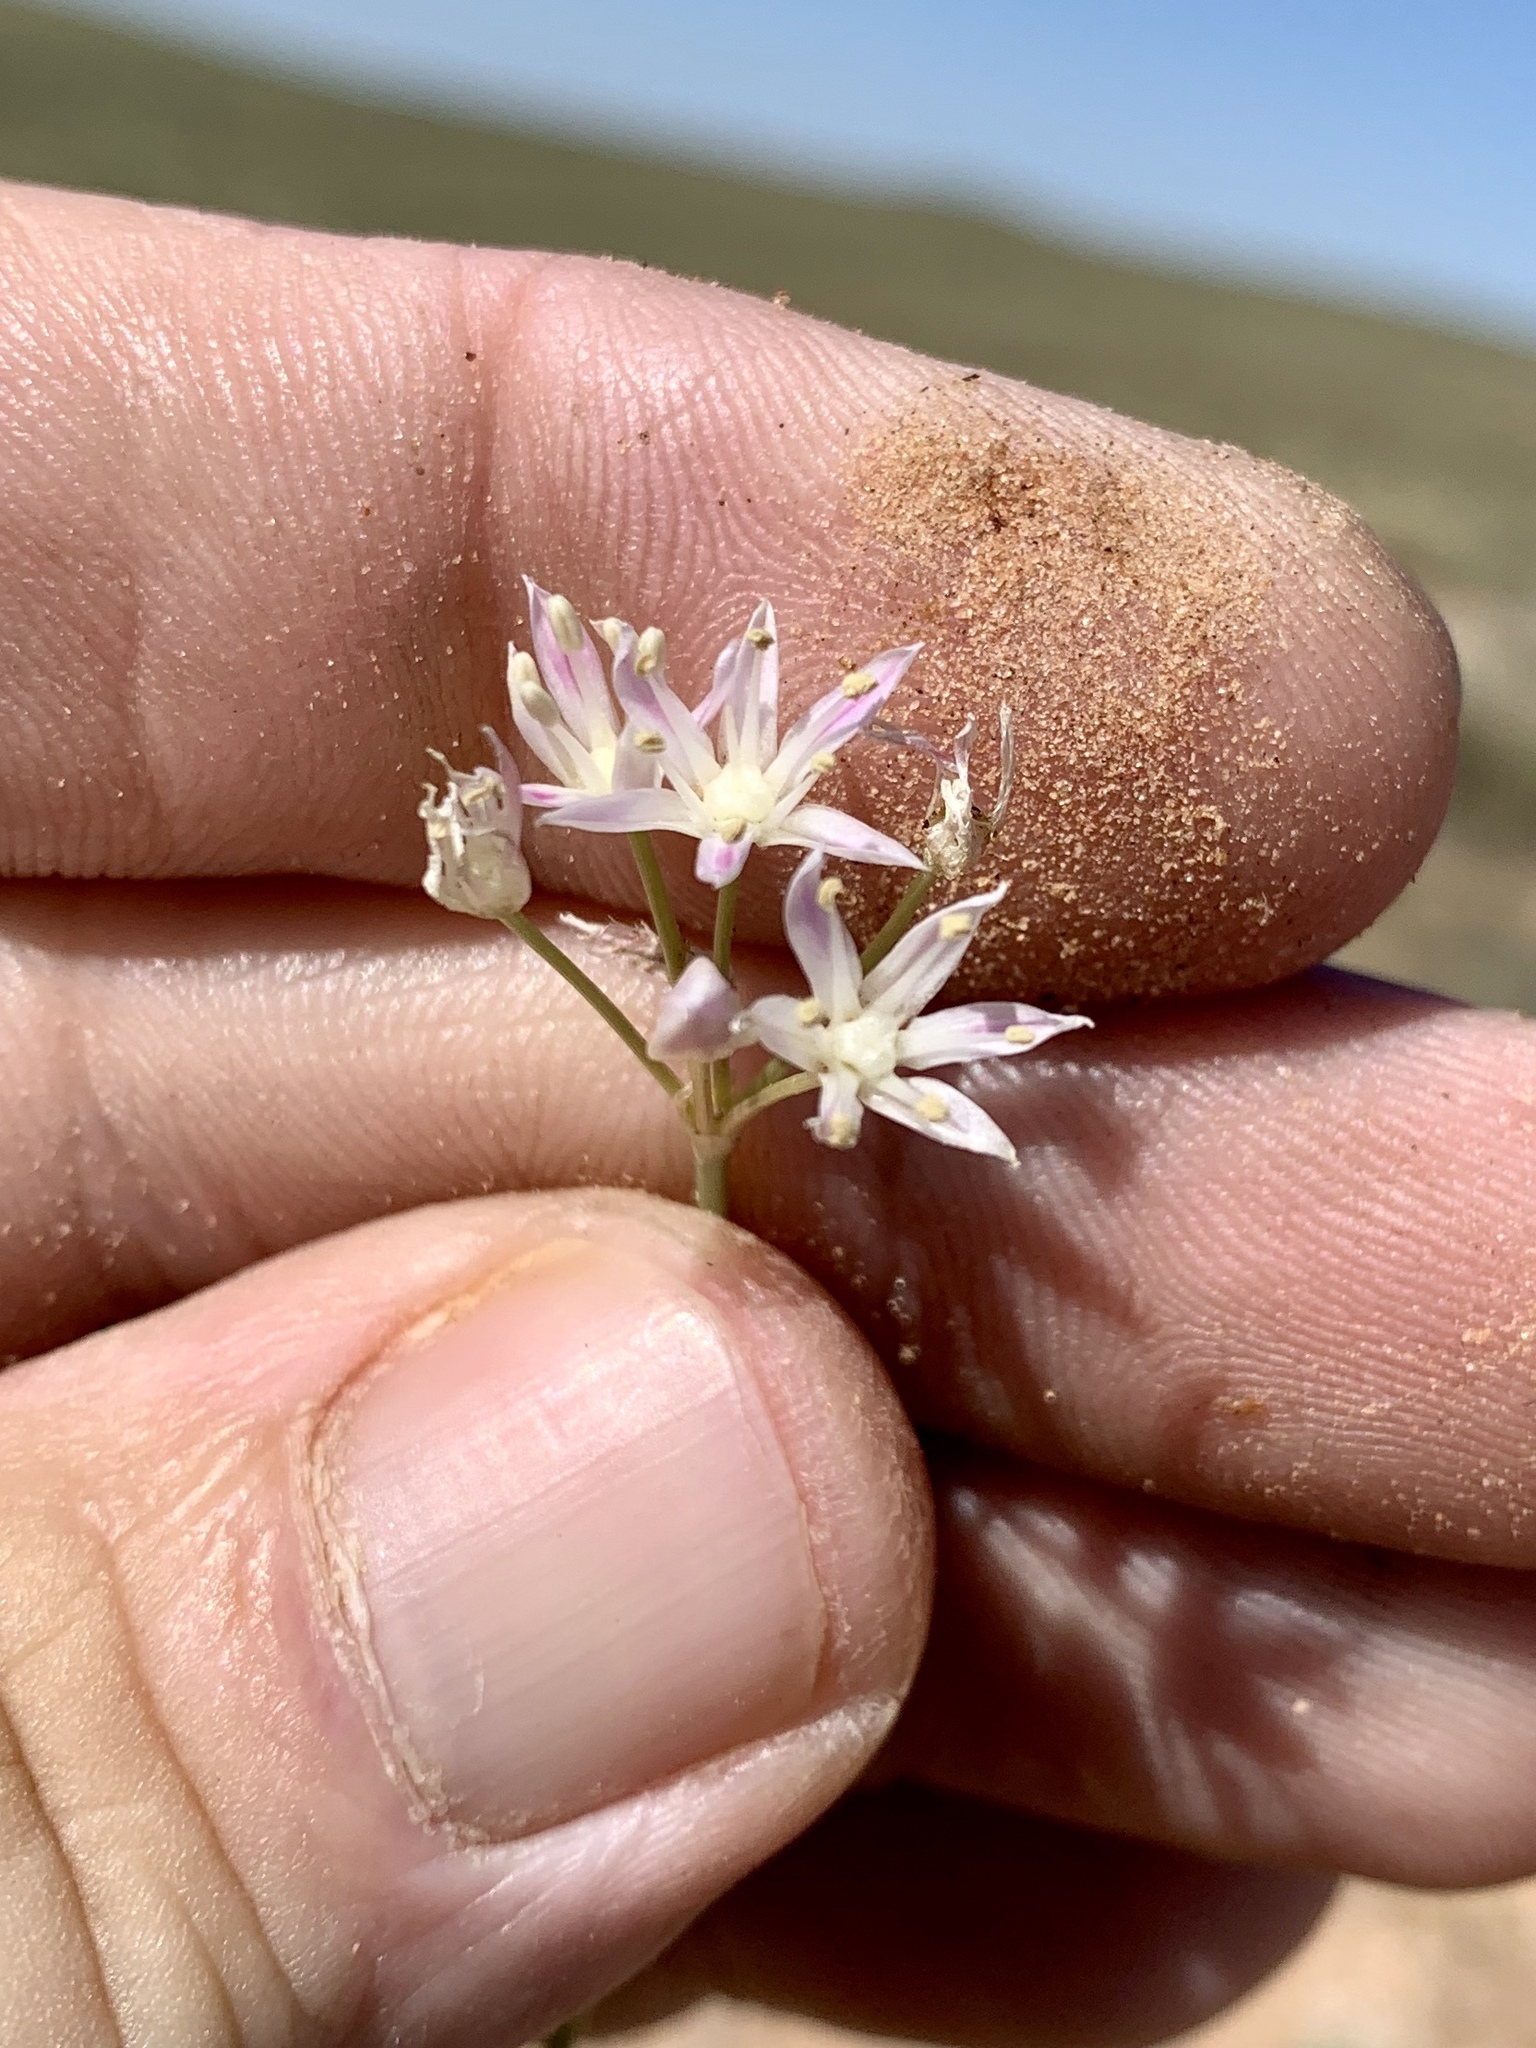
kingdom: Plantae
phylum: Tracheophyta
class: Liliopsida
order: Asparagales
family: Amaryllidaceae
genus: Allium
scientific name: Allium longifolium
